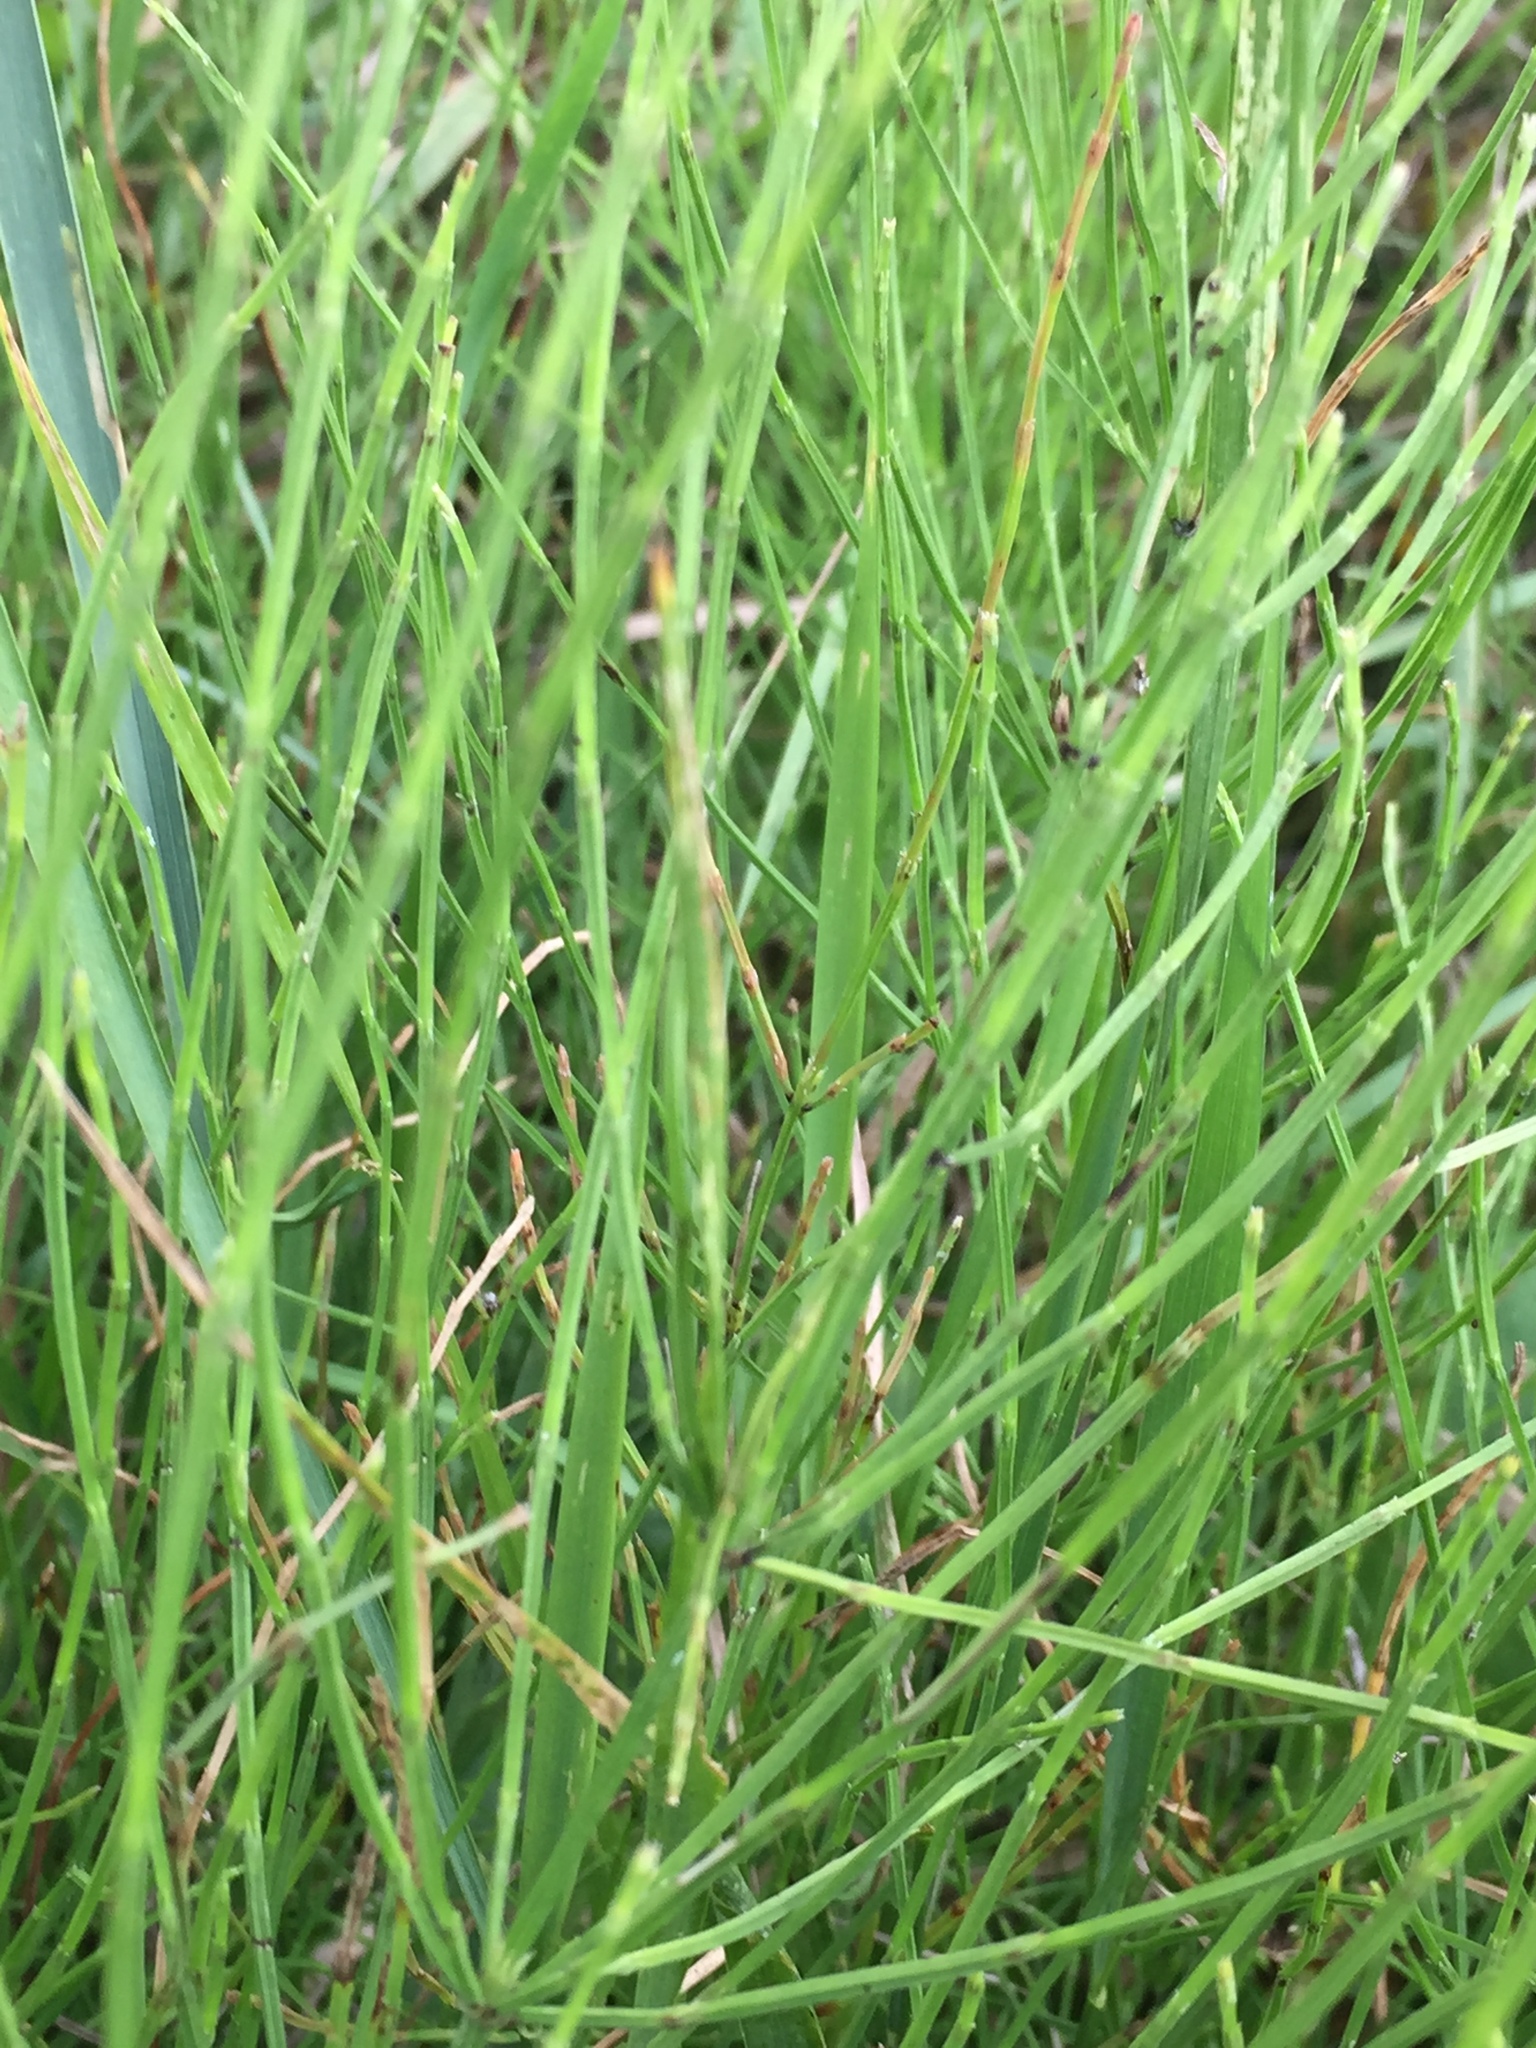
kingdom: Plantae
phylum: Tracheophyta
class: Polypodiopsida
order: Equisetales
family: Equisetaceae
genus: Equisetum
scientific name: Equisetum arvense
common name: Field horsetail
